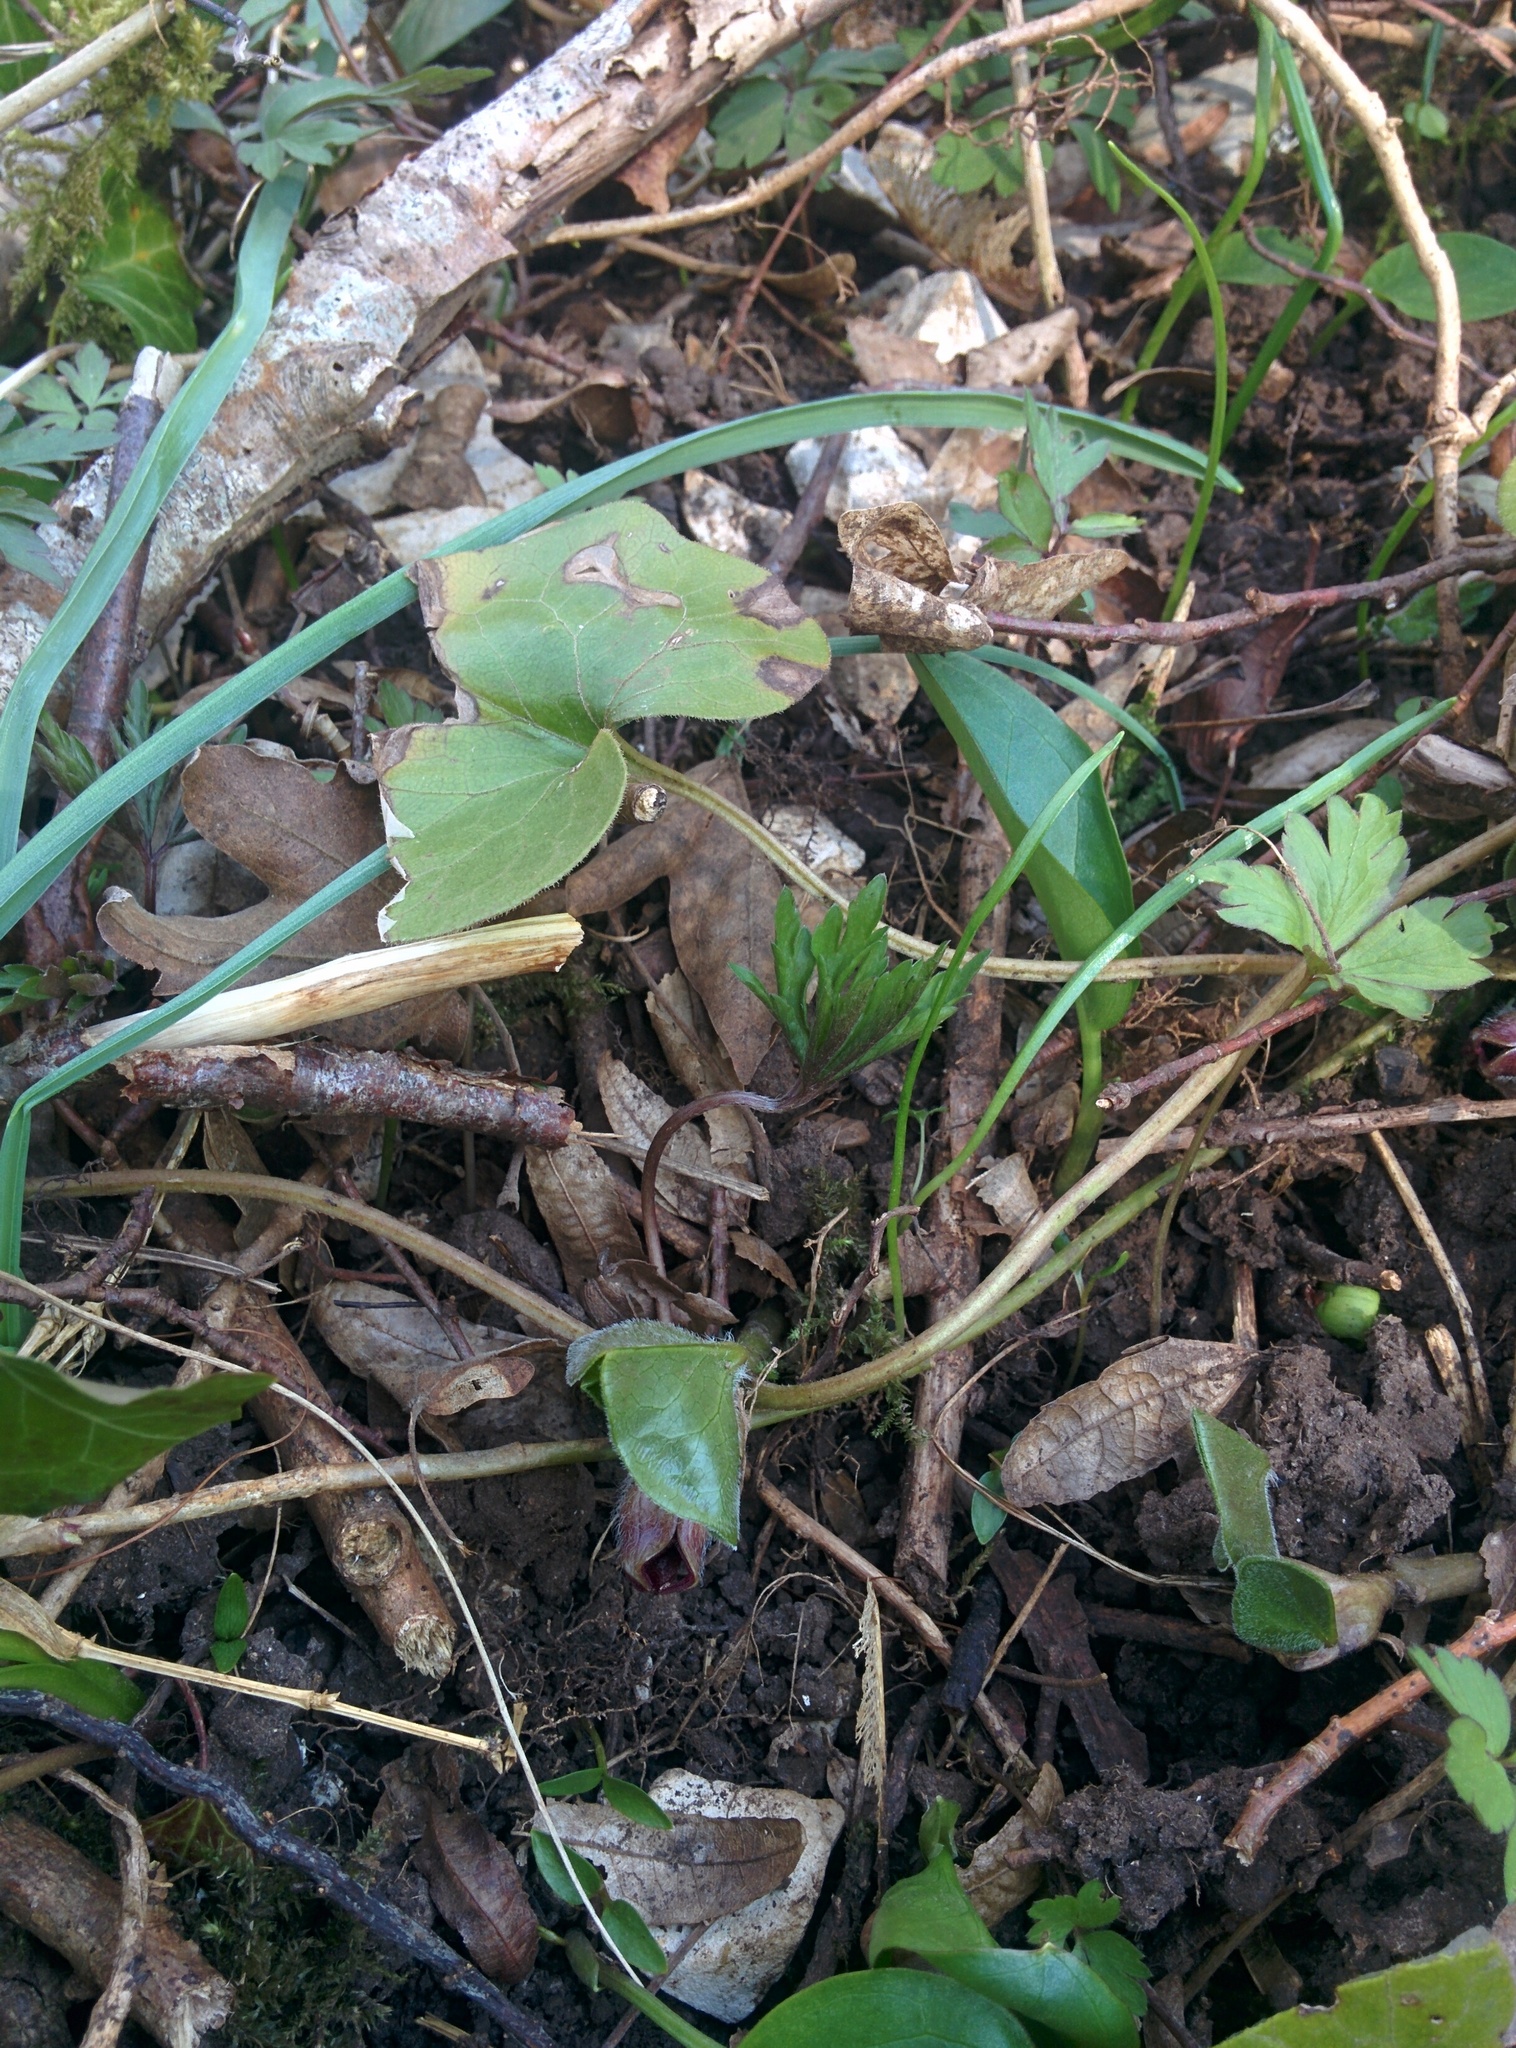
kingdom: Plantae
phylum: Tracheophyta
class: Magnoliopsida
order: Piperales
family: Aristolochiaceae
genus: Asarum
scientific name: Asarum europaeum
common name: Asarabacca
